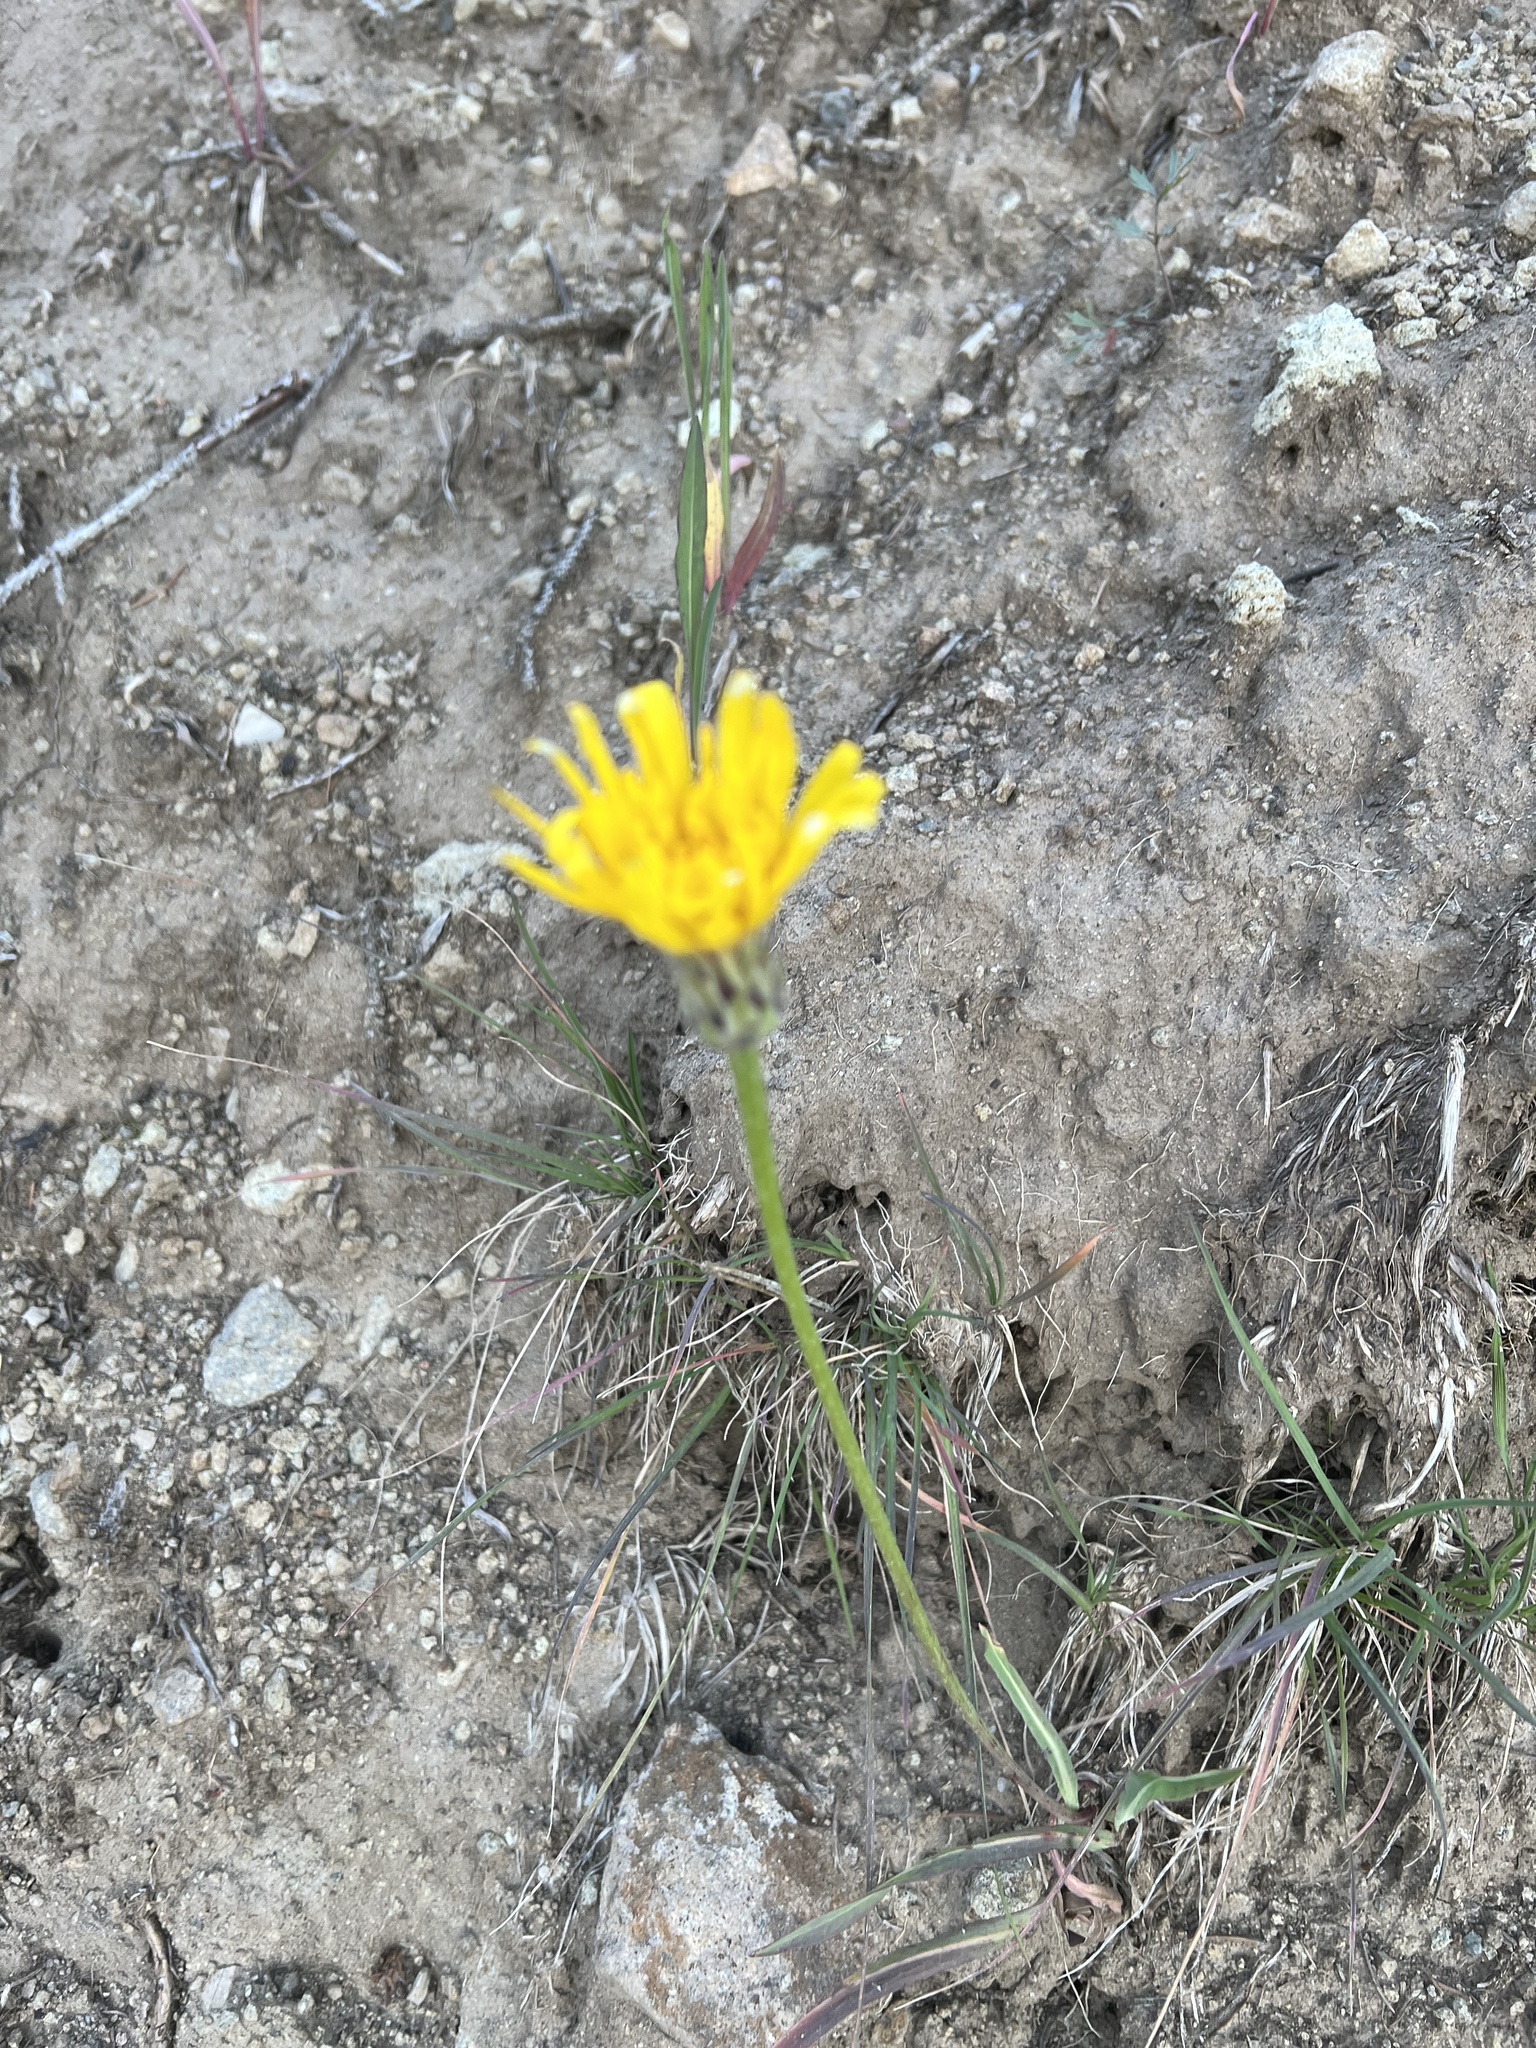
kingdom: Plantae
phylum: Tracheophyta
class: Magnoliopsida
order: Asterales
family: Asteraceae
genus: Agoseris
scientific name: Agoseris glauca
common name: Prairie agoseris
